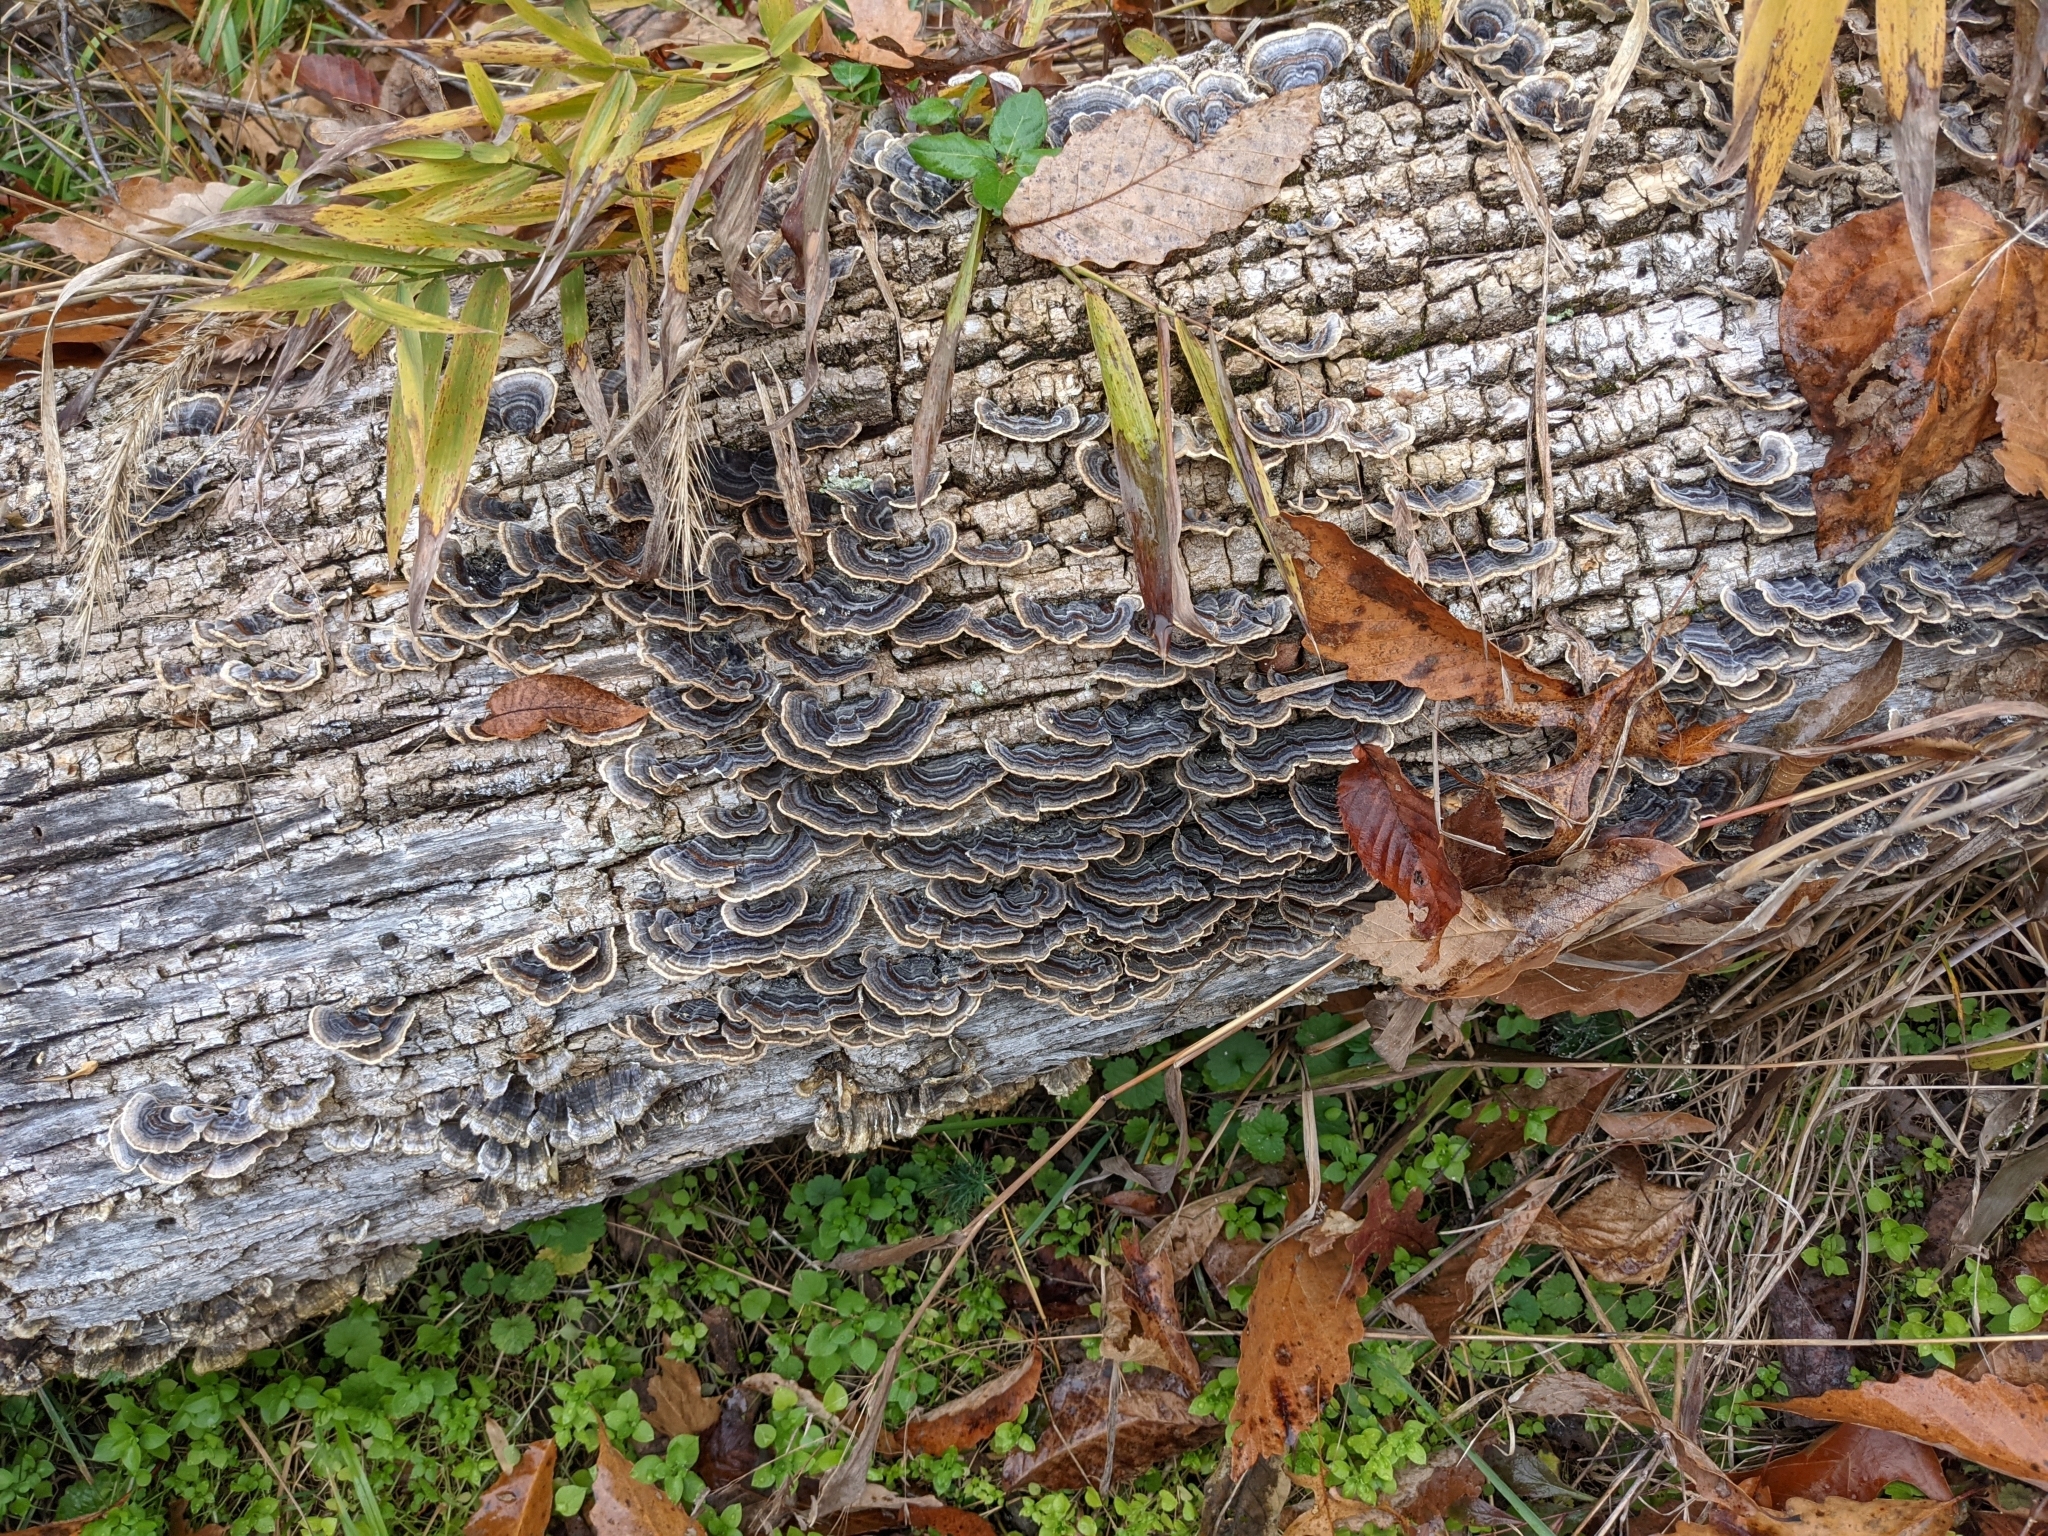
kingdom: Fungi
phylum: Basidiomycota
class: Agaricomycetes
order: Polyporales
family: Polyporaceae
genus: Trametes
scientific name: Trametes versicolor
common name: Turkeytail
